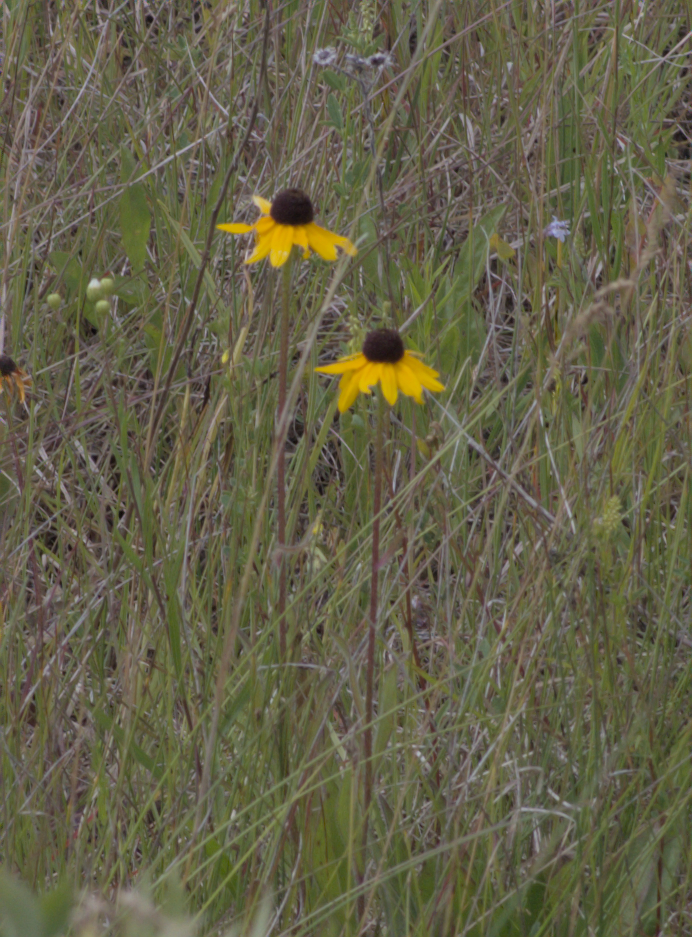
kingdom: Plantae
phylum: Tracheophyta
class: Magnoliopsida
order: Asterales
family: Asteraceae
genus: Rudbeckia
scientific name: Rudbeckia hirta
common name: Black-eyed-susan
